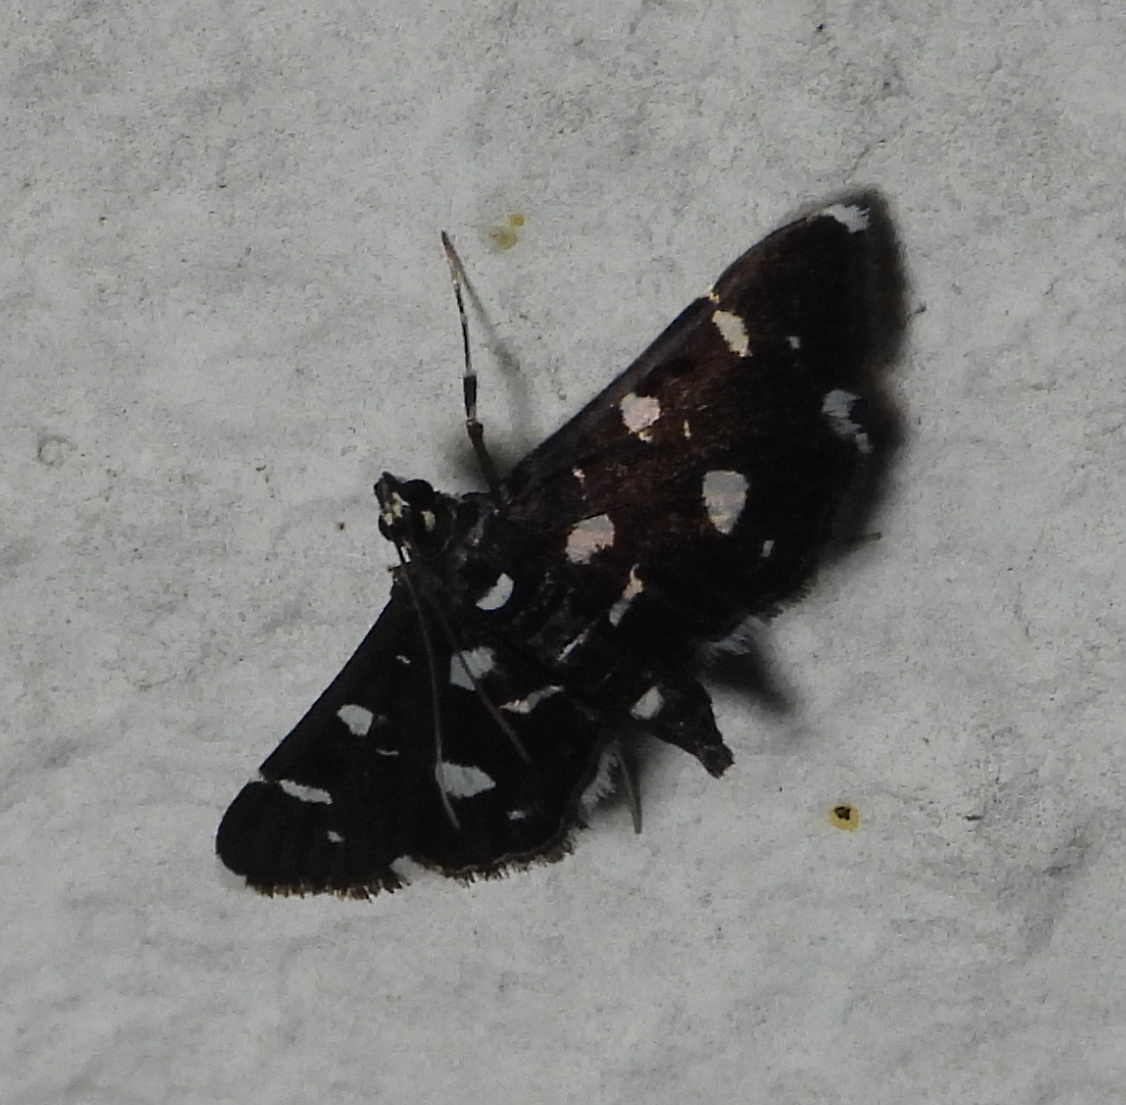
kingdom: Animalia
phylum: Arthropoda
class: Insecta
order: Lepidoptera
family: Crambidae
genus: Bocchoris
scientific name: Bocchoris inspersalis
